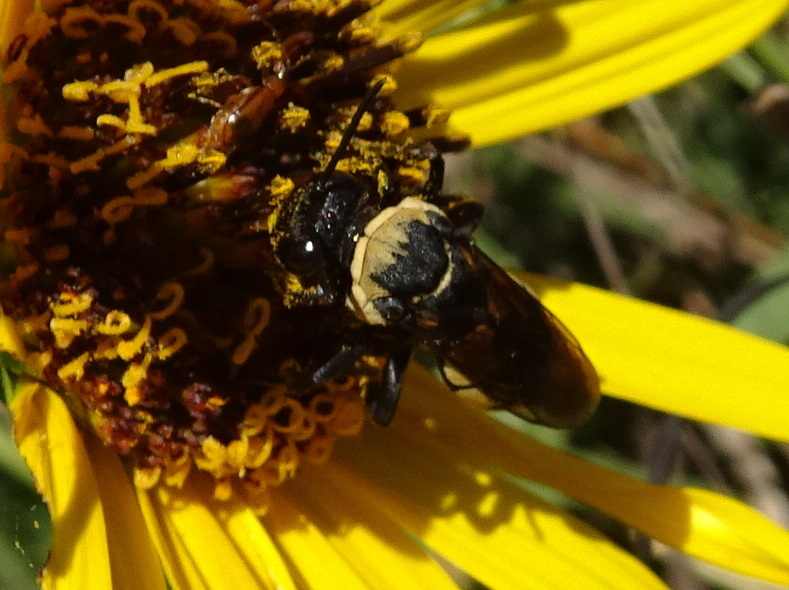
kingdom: Animalia
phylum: Arthropoda
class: Insecta
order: Hymenoptera
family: Apidae
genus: Triepeolus
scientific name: Triepeolus concavus
